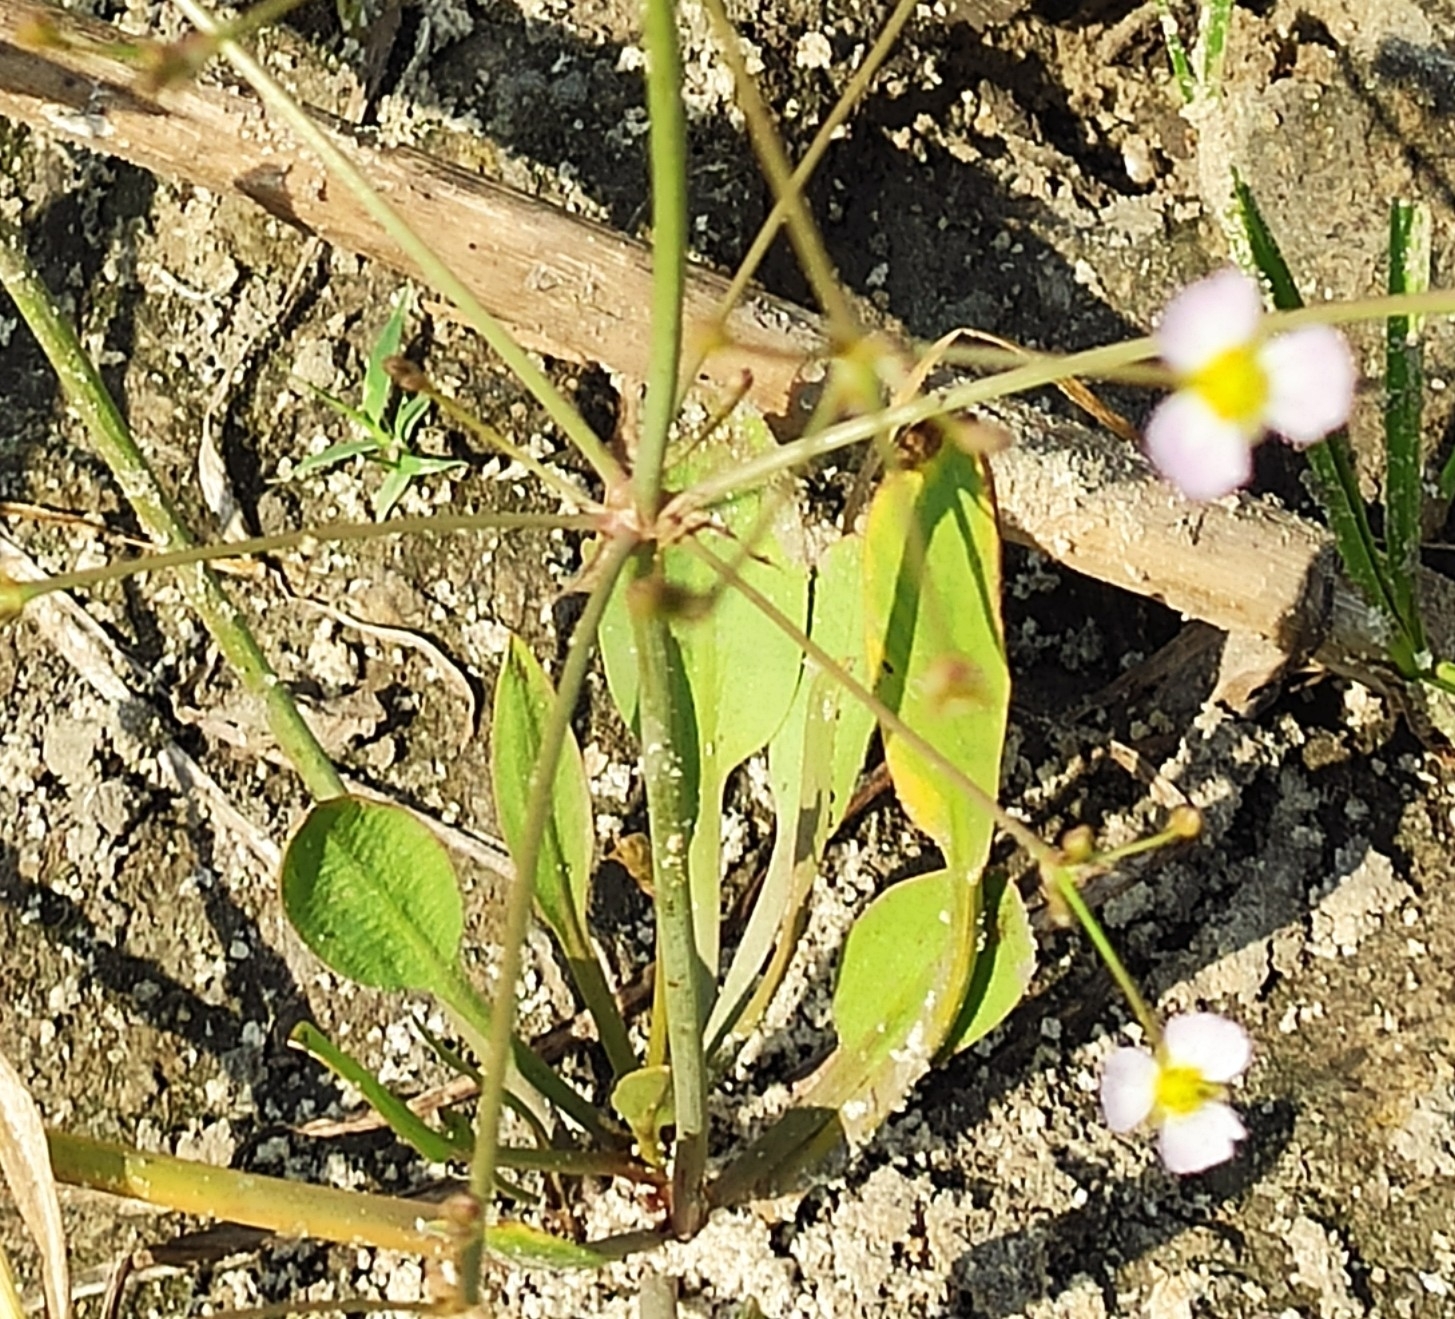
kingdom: Plantae
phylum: Tracheophyta
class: Liliopsida
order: Alismatales
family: Alismataceae
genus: Alisma
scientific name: Alisma plantago-aquatica
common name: Water-plantain
